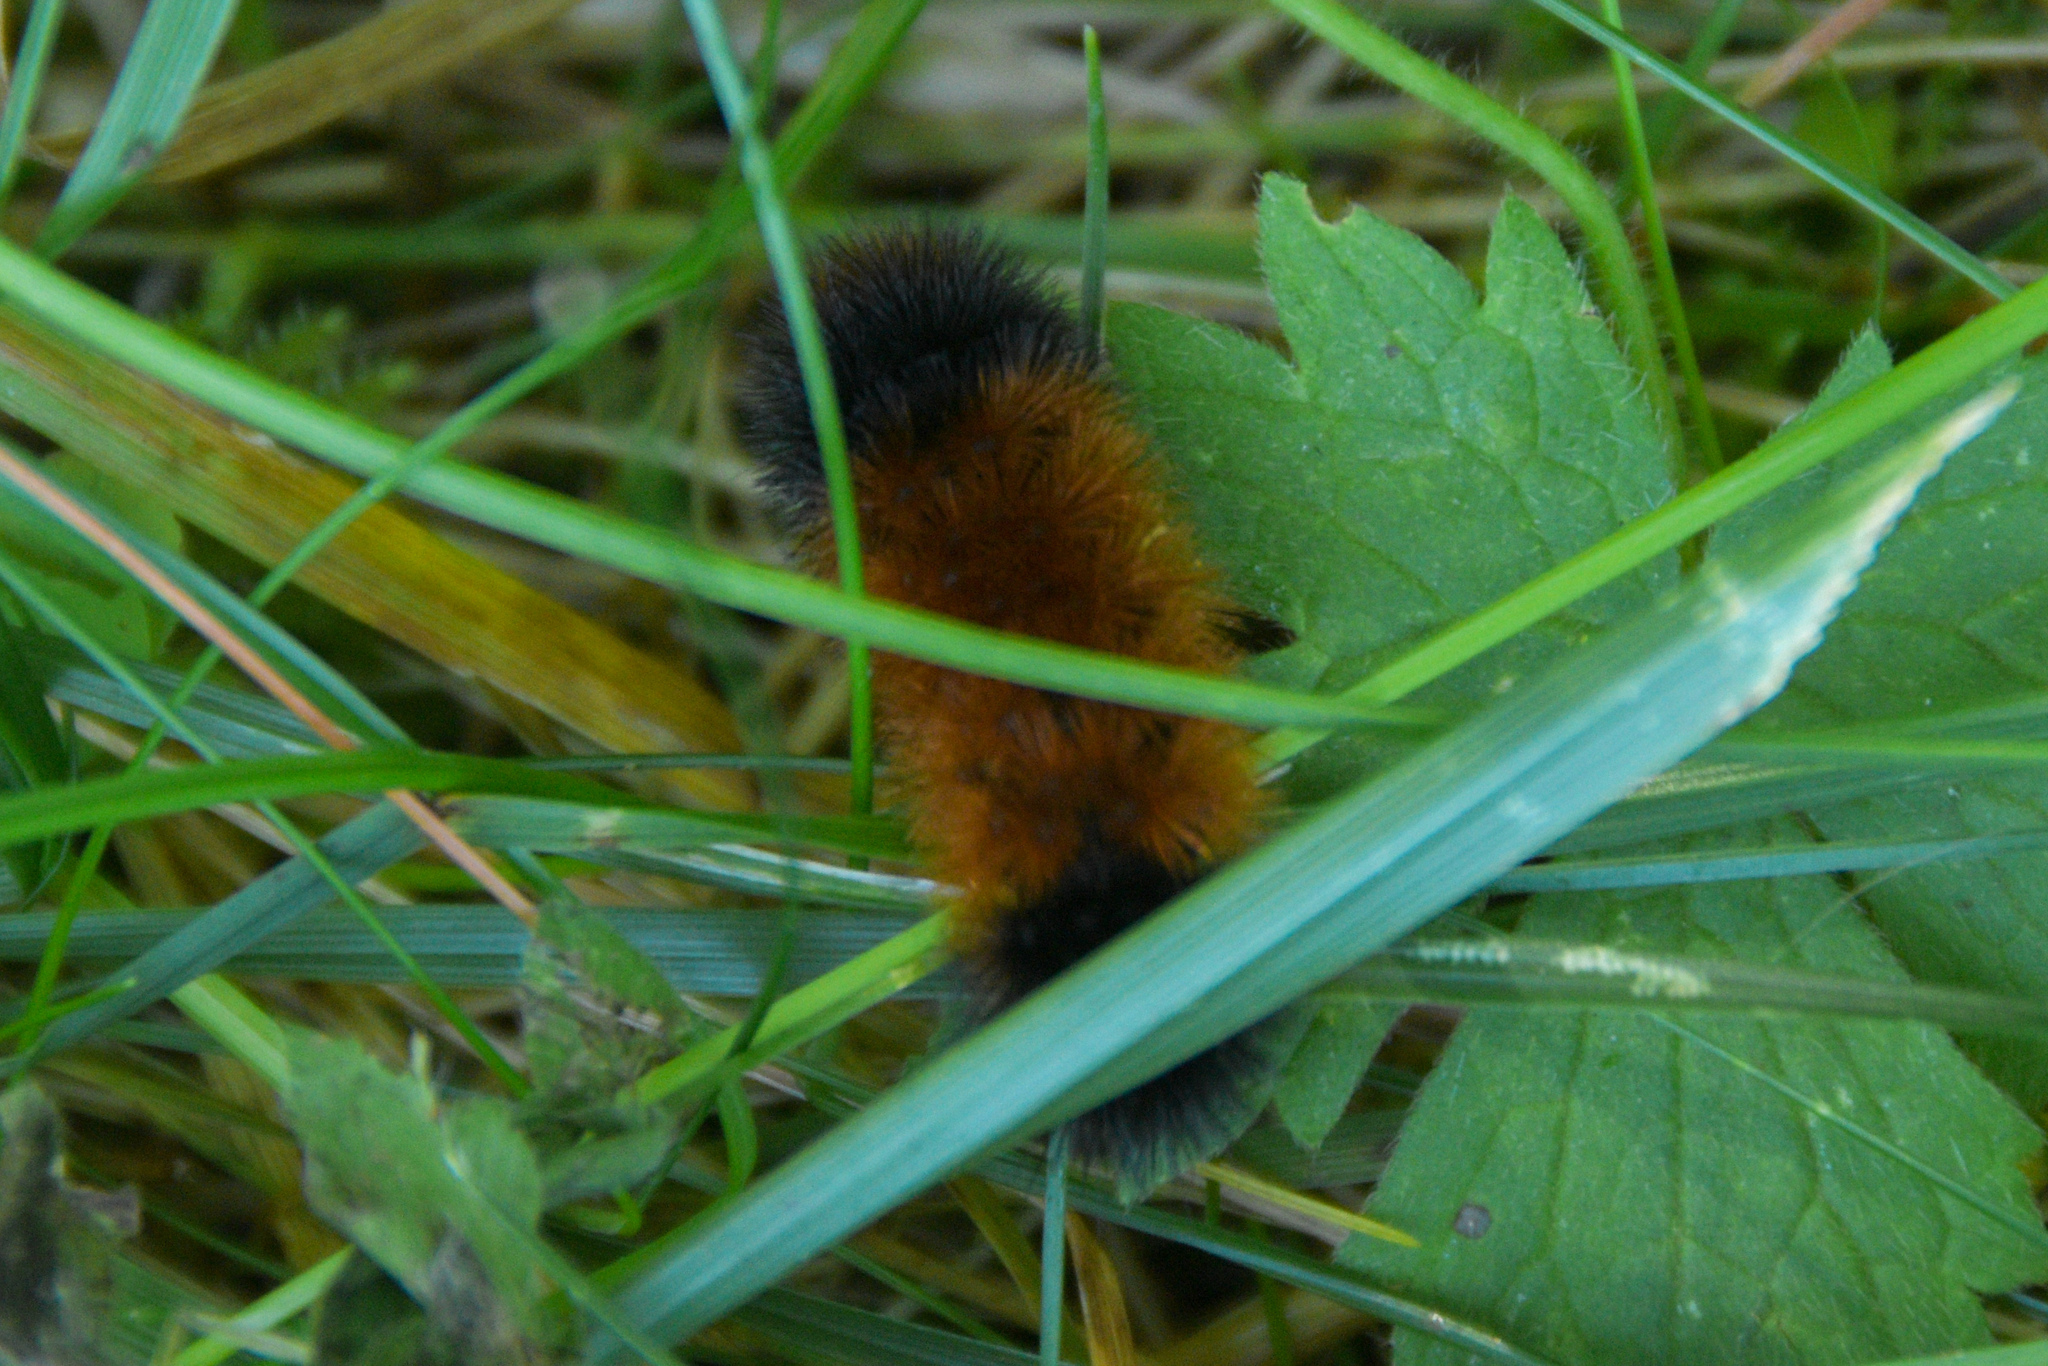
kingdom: Animalia
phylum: Arthropoda
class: Insecta
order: Lepidoptera
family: Erebidae
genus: Pyrrharctia
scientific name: Pyrrharctia isabella
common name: Isabella tiger moth
